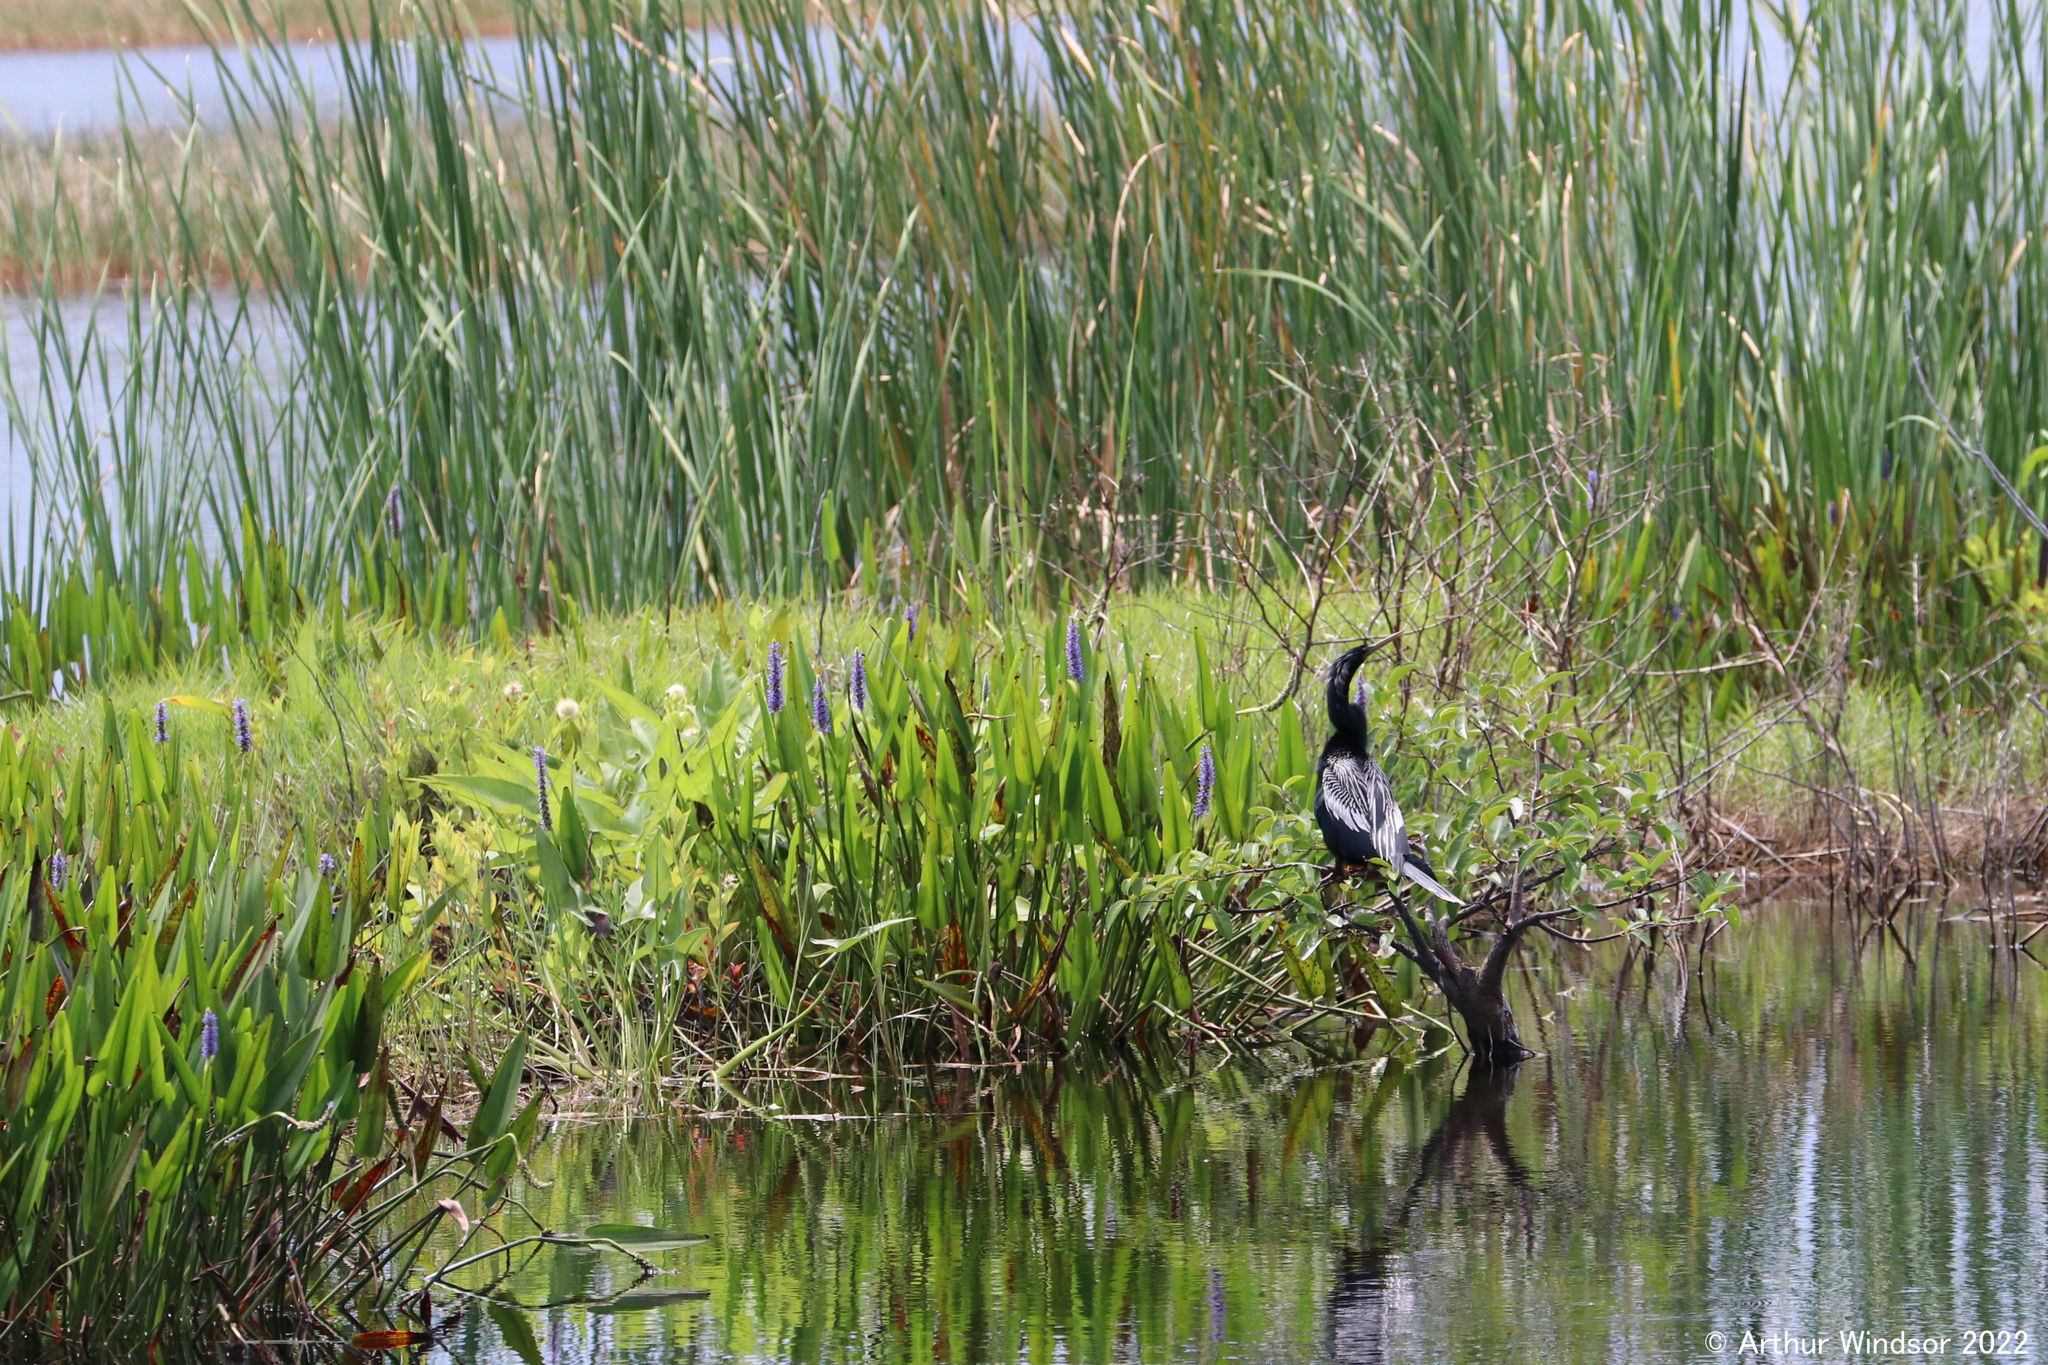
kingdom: Animalia
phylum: Chordata
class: Aves
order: Suliformes
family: Anhingidae
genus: Anhinga
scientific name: Anhinga anhinga
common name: Anhinga
